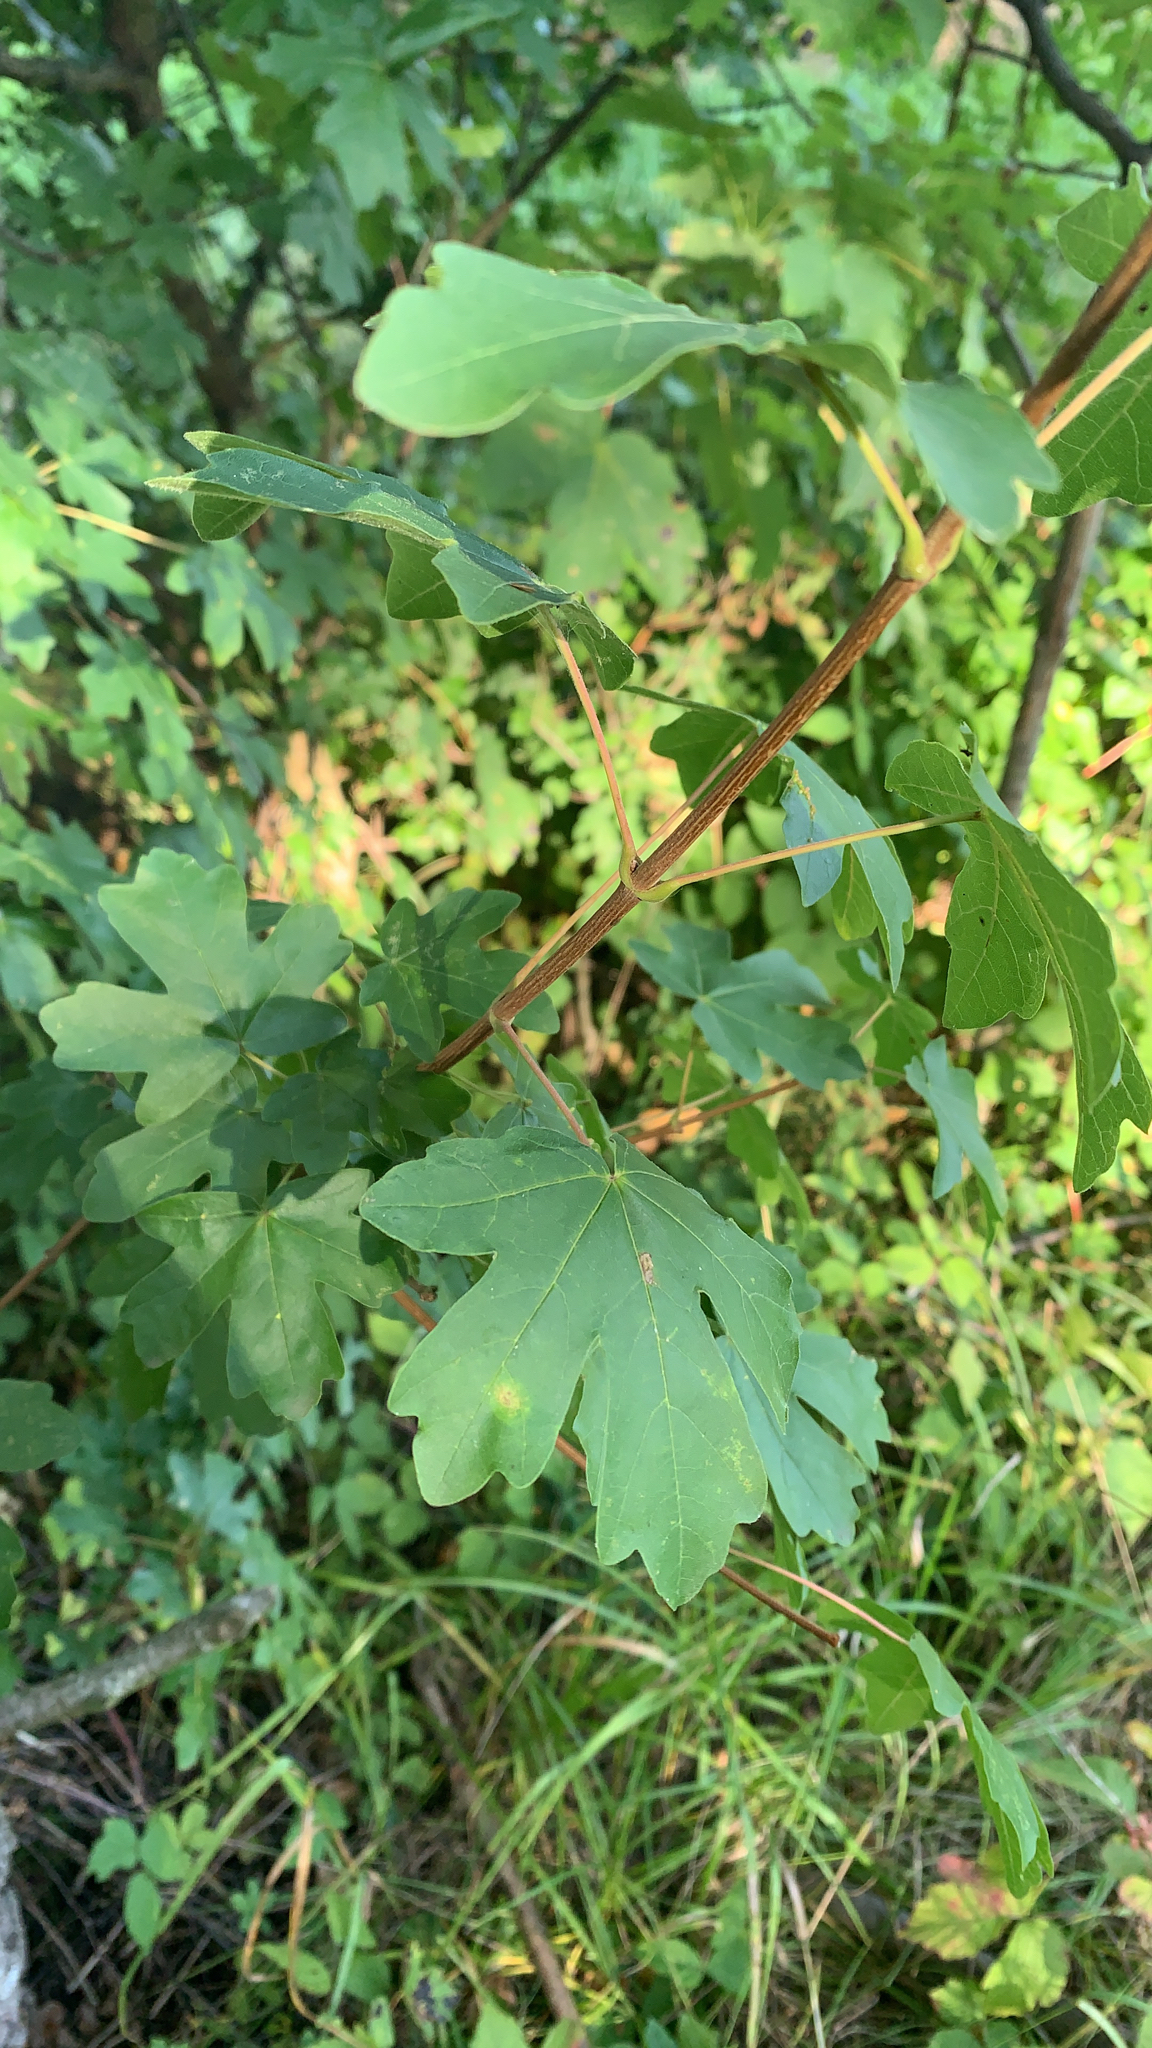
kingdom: Plantae
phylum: Tracheophyta
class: Magnoliopsida
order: Sapindales
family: Sapindaceae
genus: Acer
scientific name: Acer campestre
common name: Field maple
